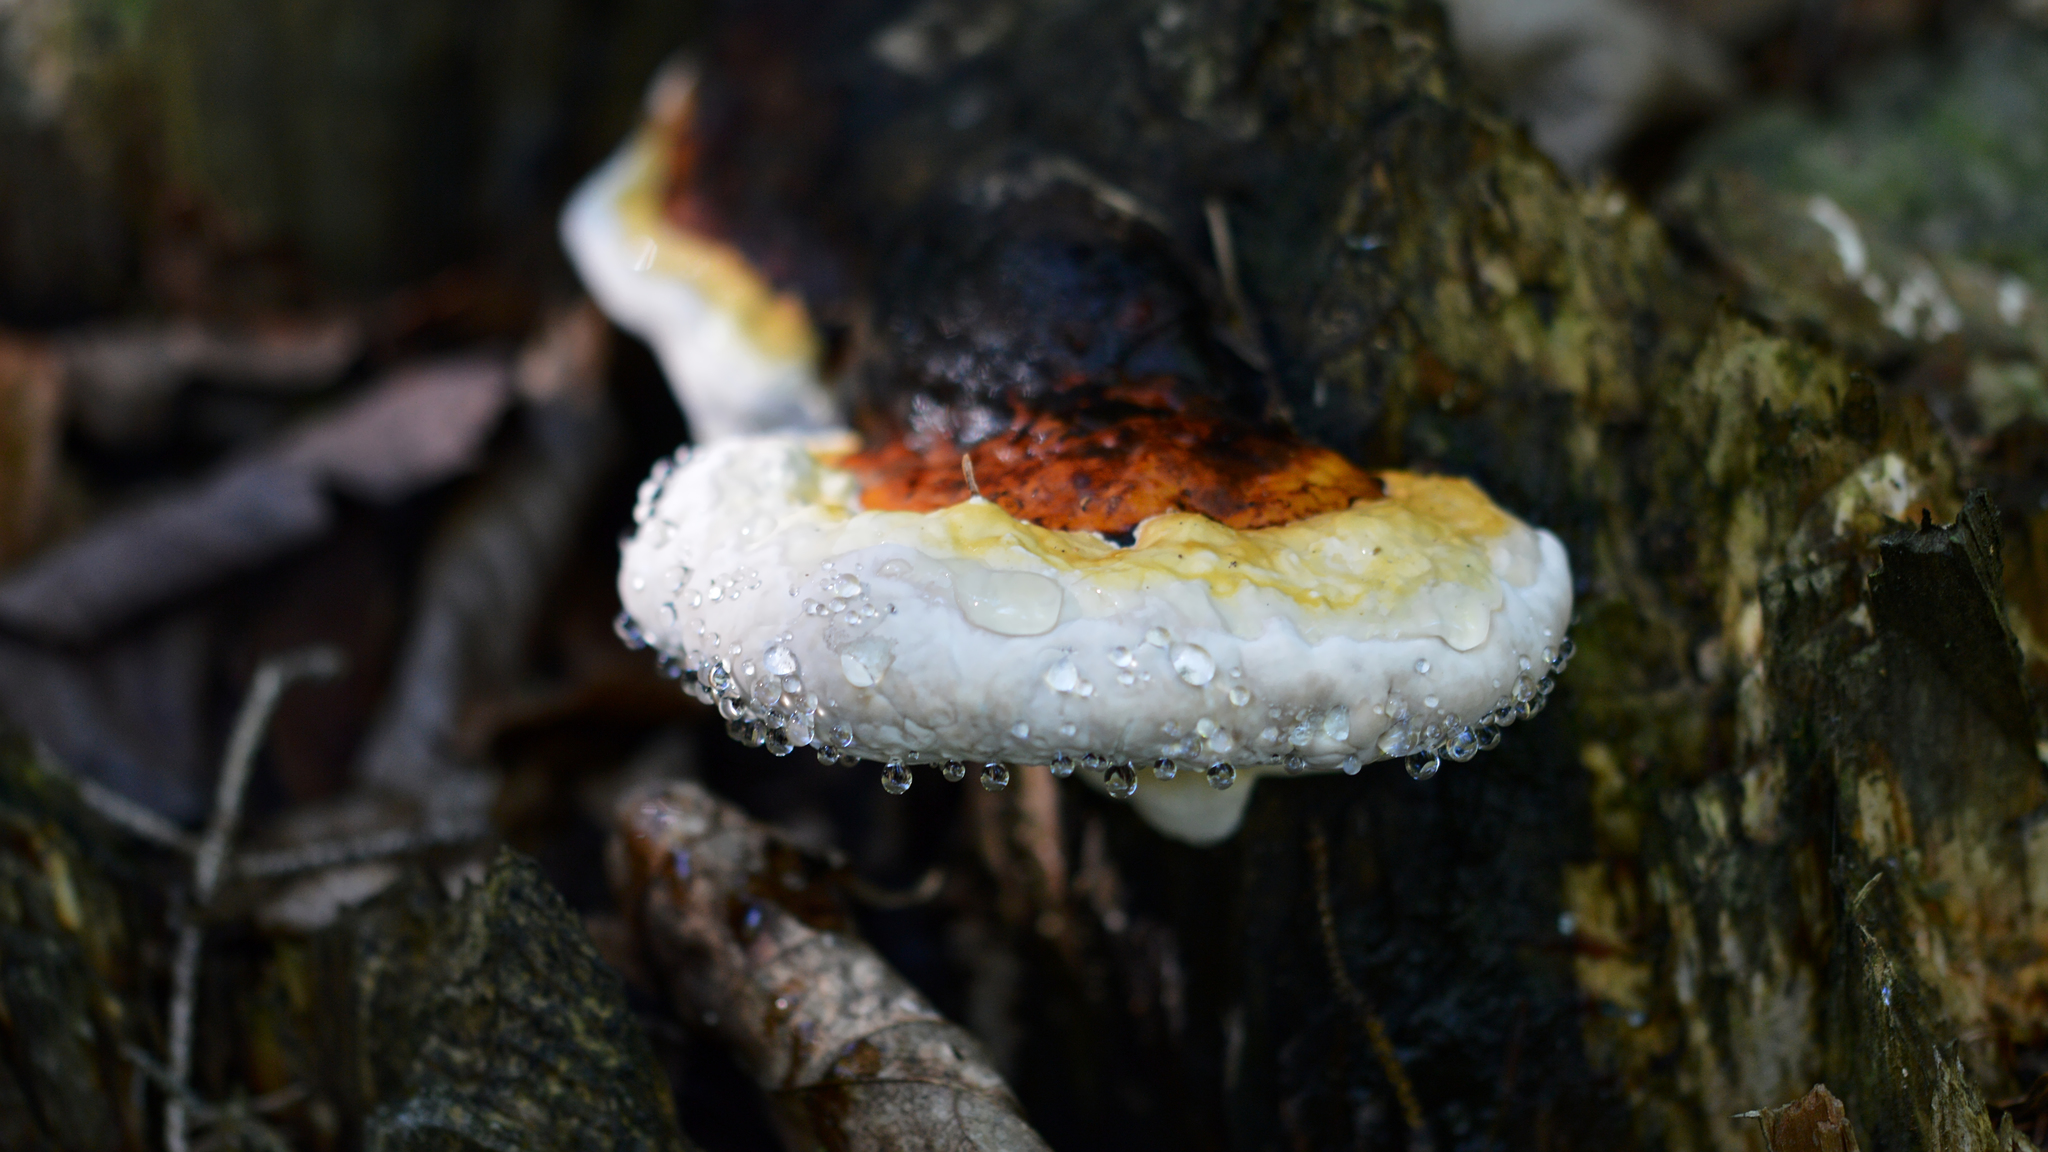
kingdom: Fungi
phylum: Basidiomycota
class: Agaricomycetes
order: Polyporales
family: Fomitopsidaceae
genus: Fomitopsis
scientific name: Fomitopsis mounceae
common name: Northern red belt
